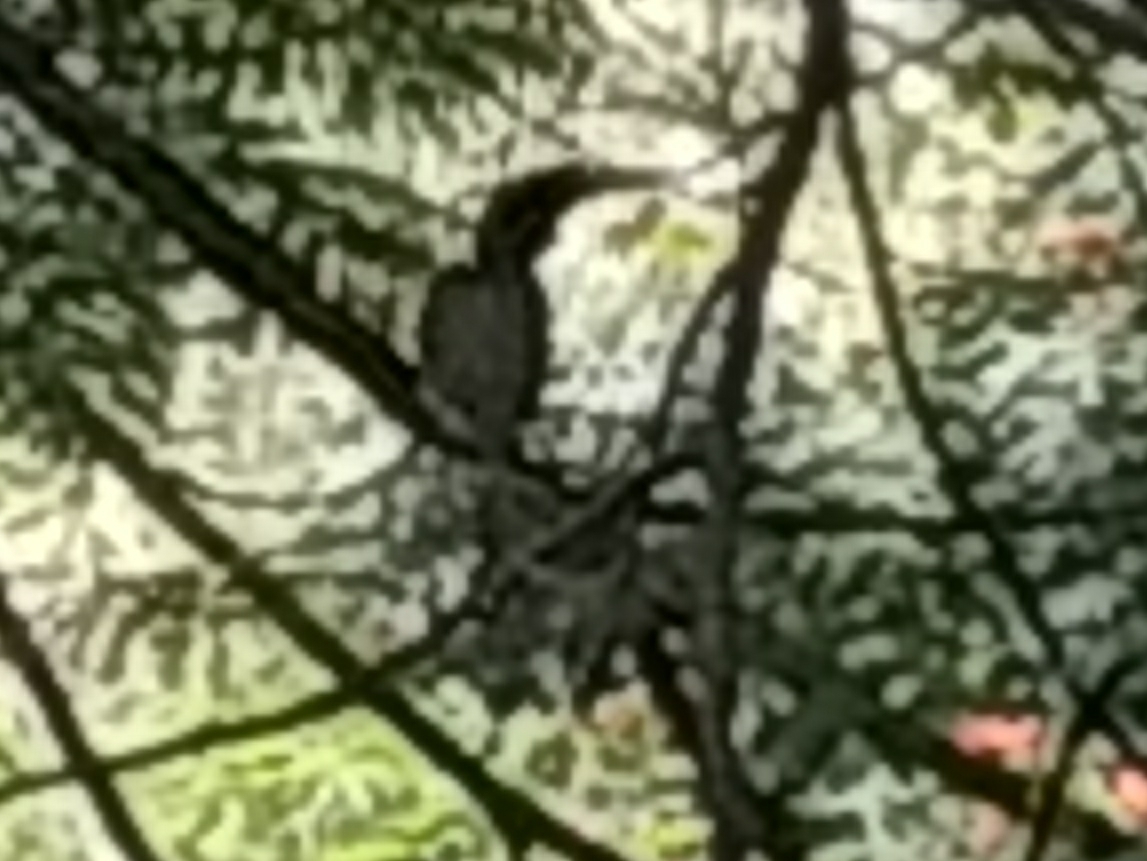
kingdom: Animalia
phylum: Chordata
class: Aves
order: Bucerotiformes
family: Bucerotidae
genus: Ocyceros
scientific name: Ocyceros birostris
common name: Indian grey hornbill
